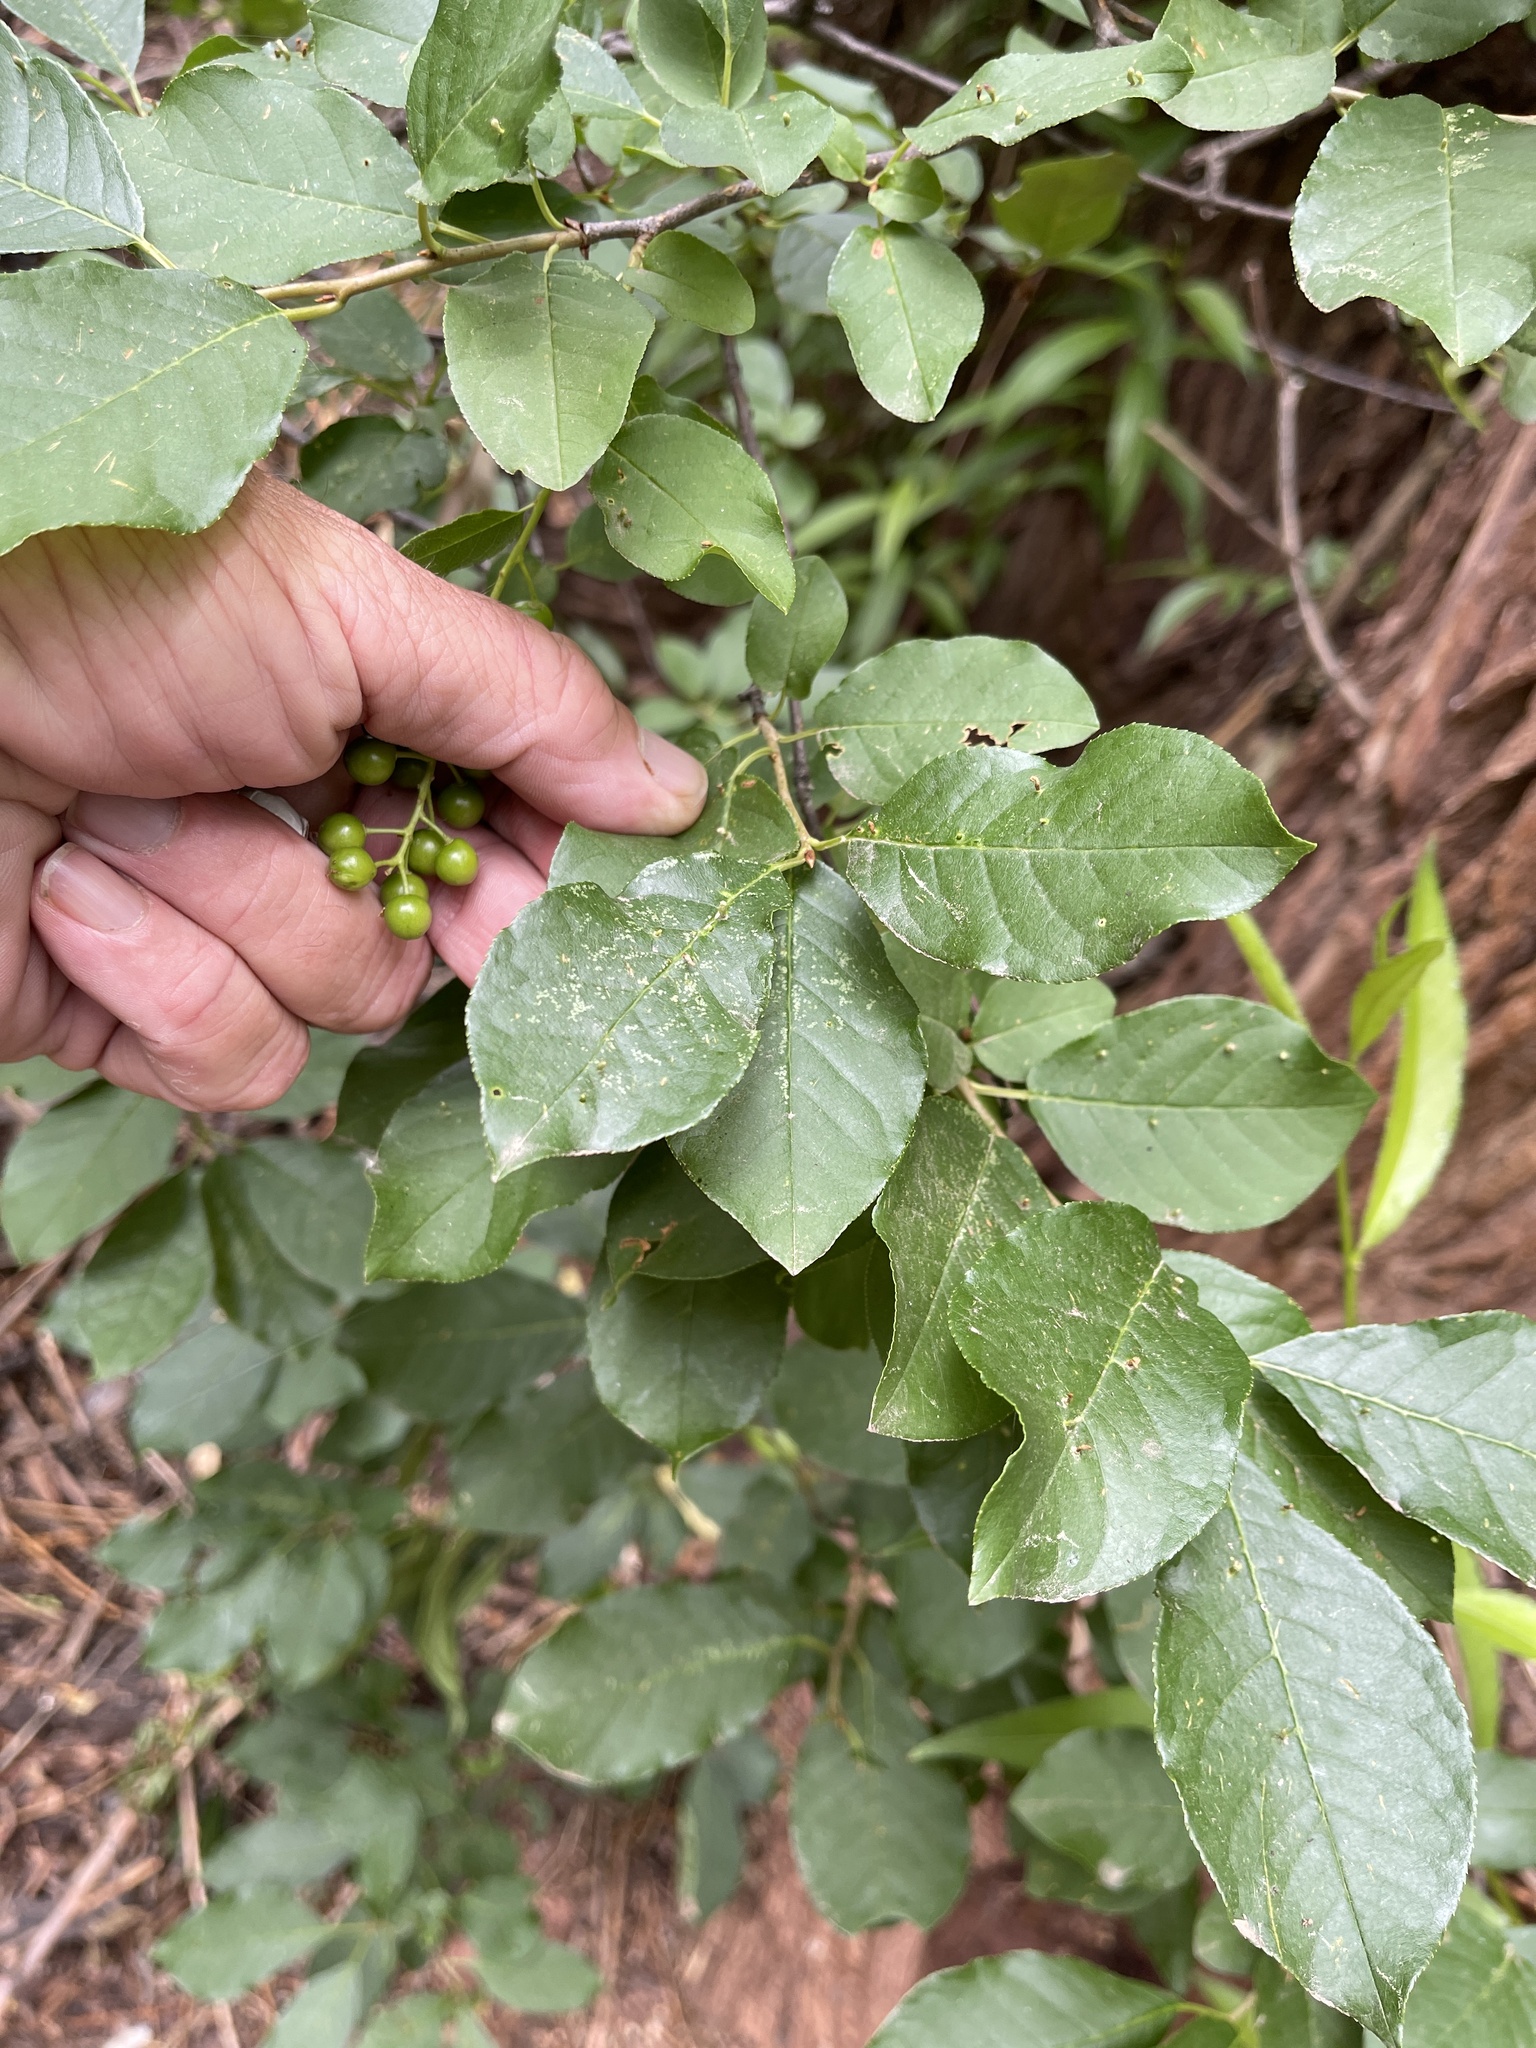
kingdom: Plantae
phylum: Tracheophyta
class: Magnoliopsida
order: Rosales
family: Rosaceae
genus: Prunus
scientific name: Prunus virginiana
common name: Chokecherry
